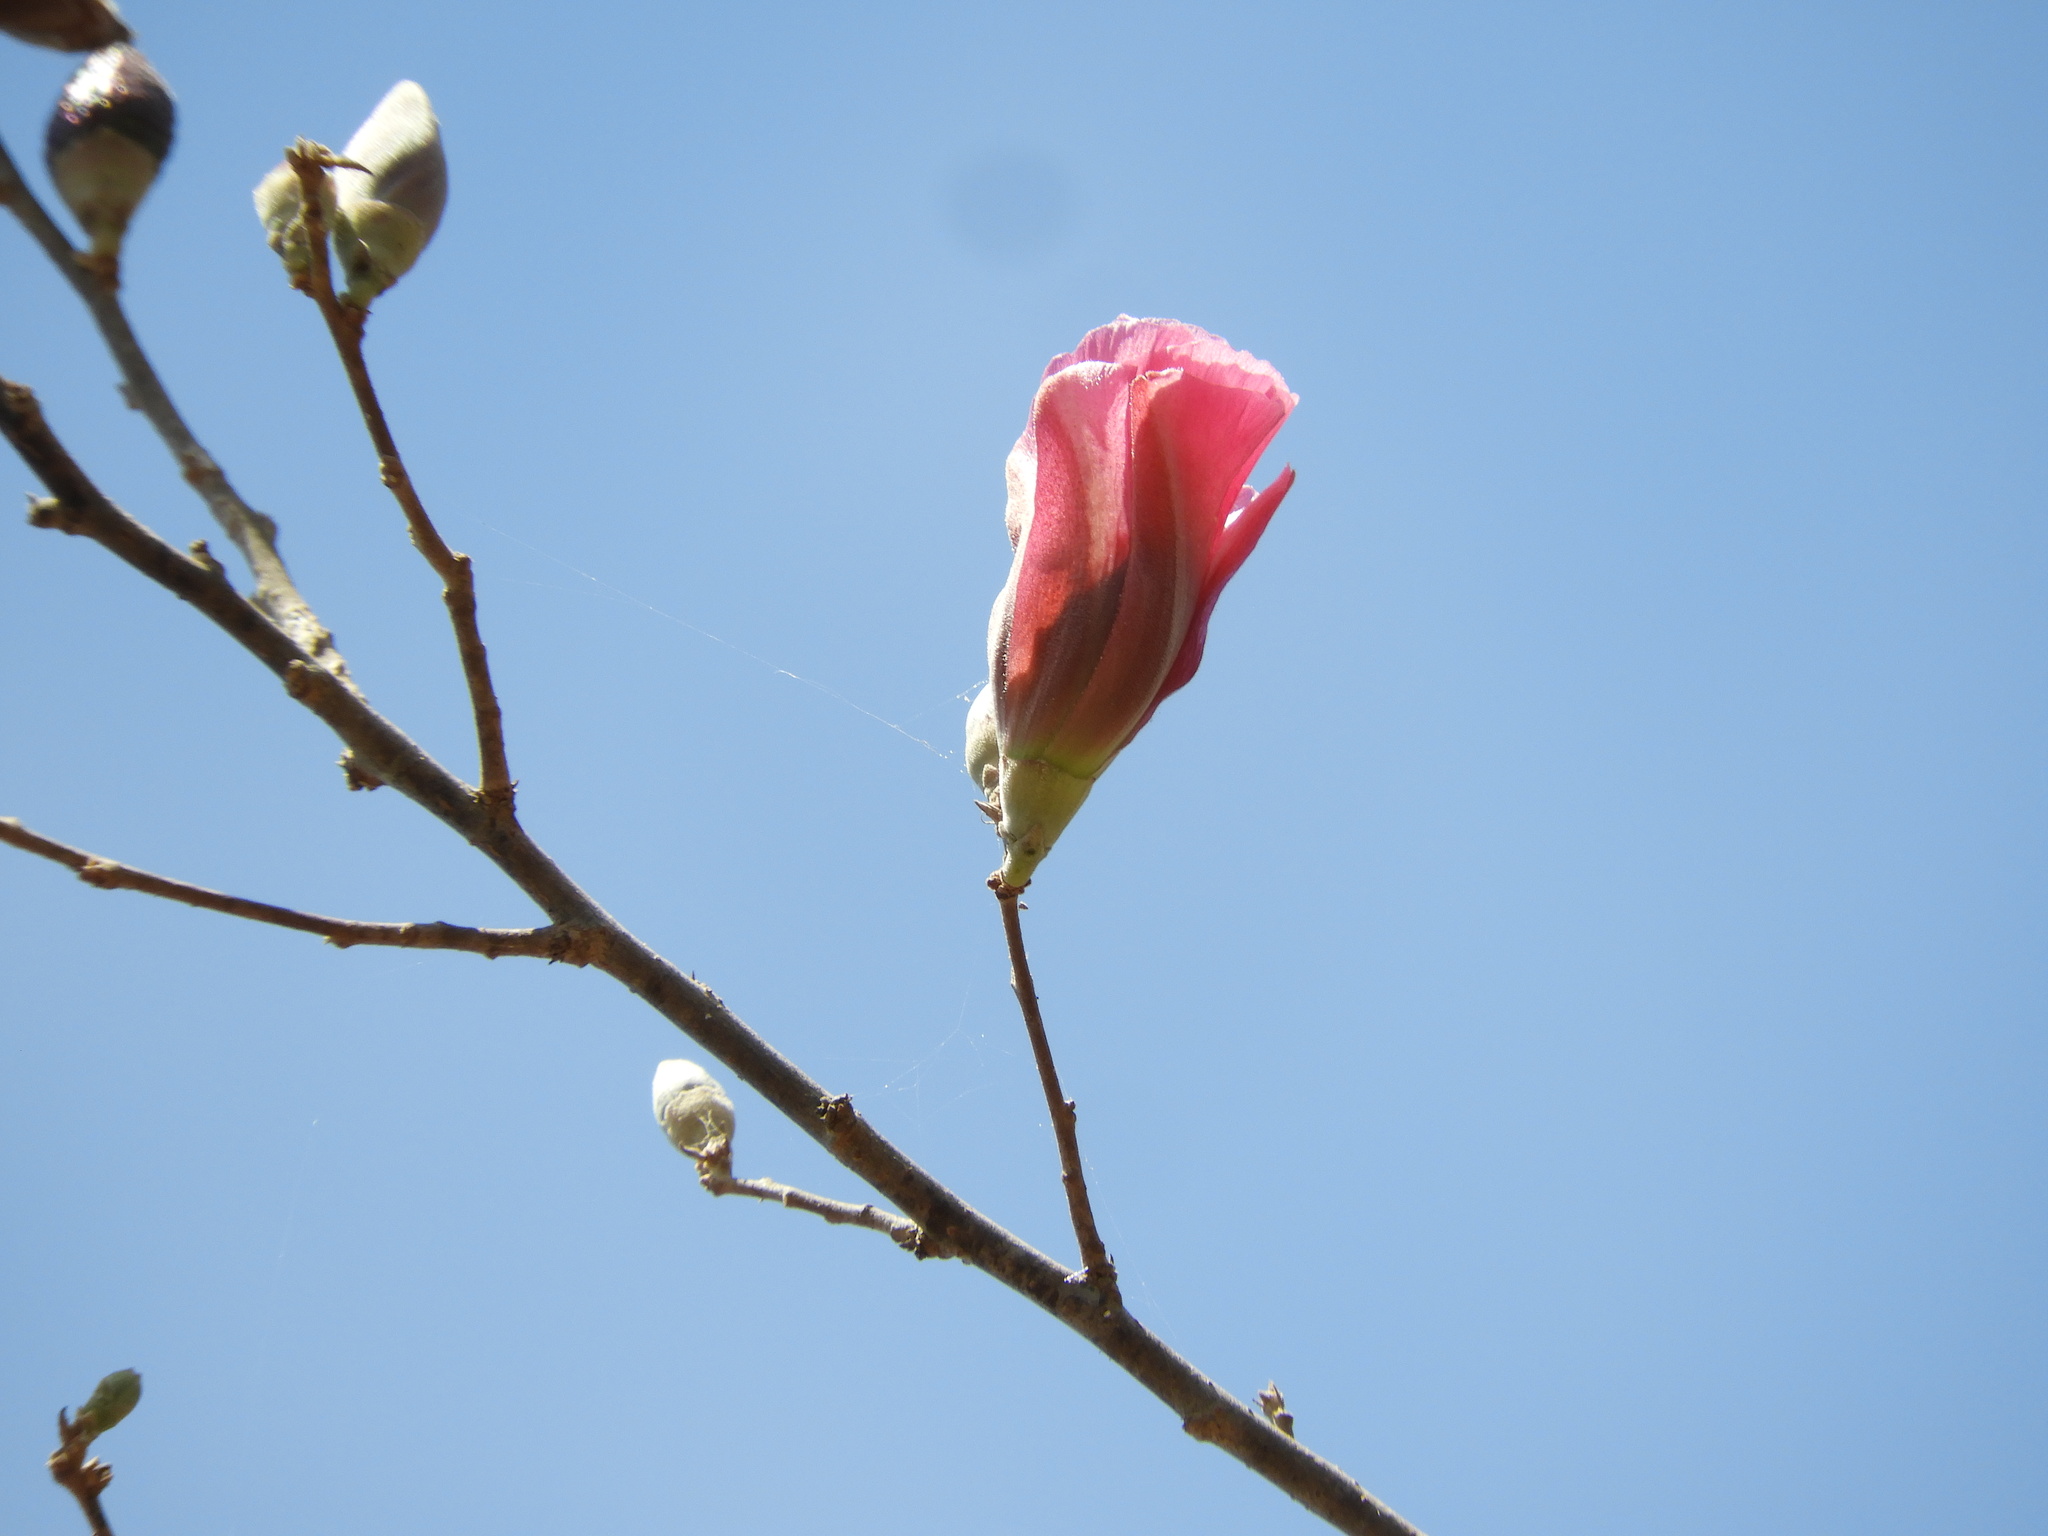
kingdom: Plantae
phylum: Tracheophyta
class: Magnoliopsida
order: Malvales
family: Malvaceae
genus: Gossypium
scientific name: Gossypium aridum
